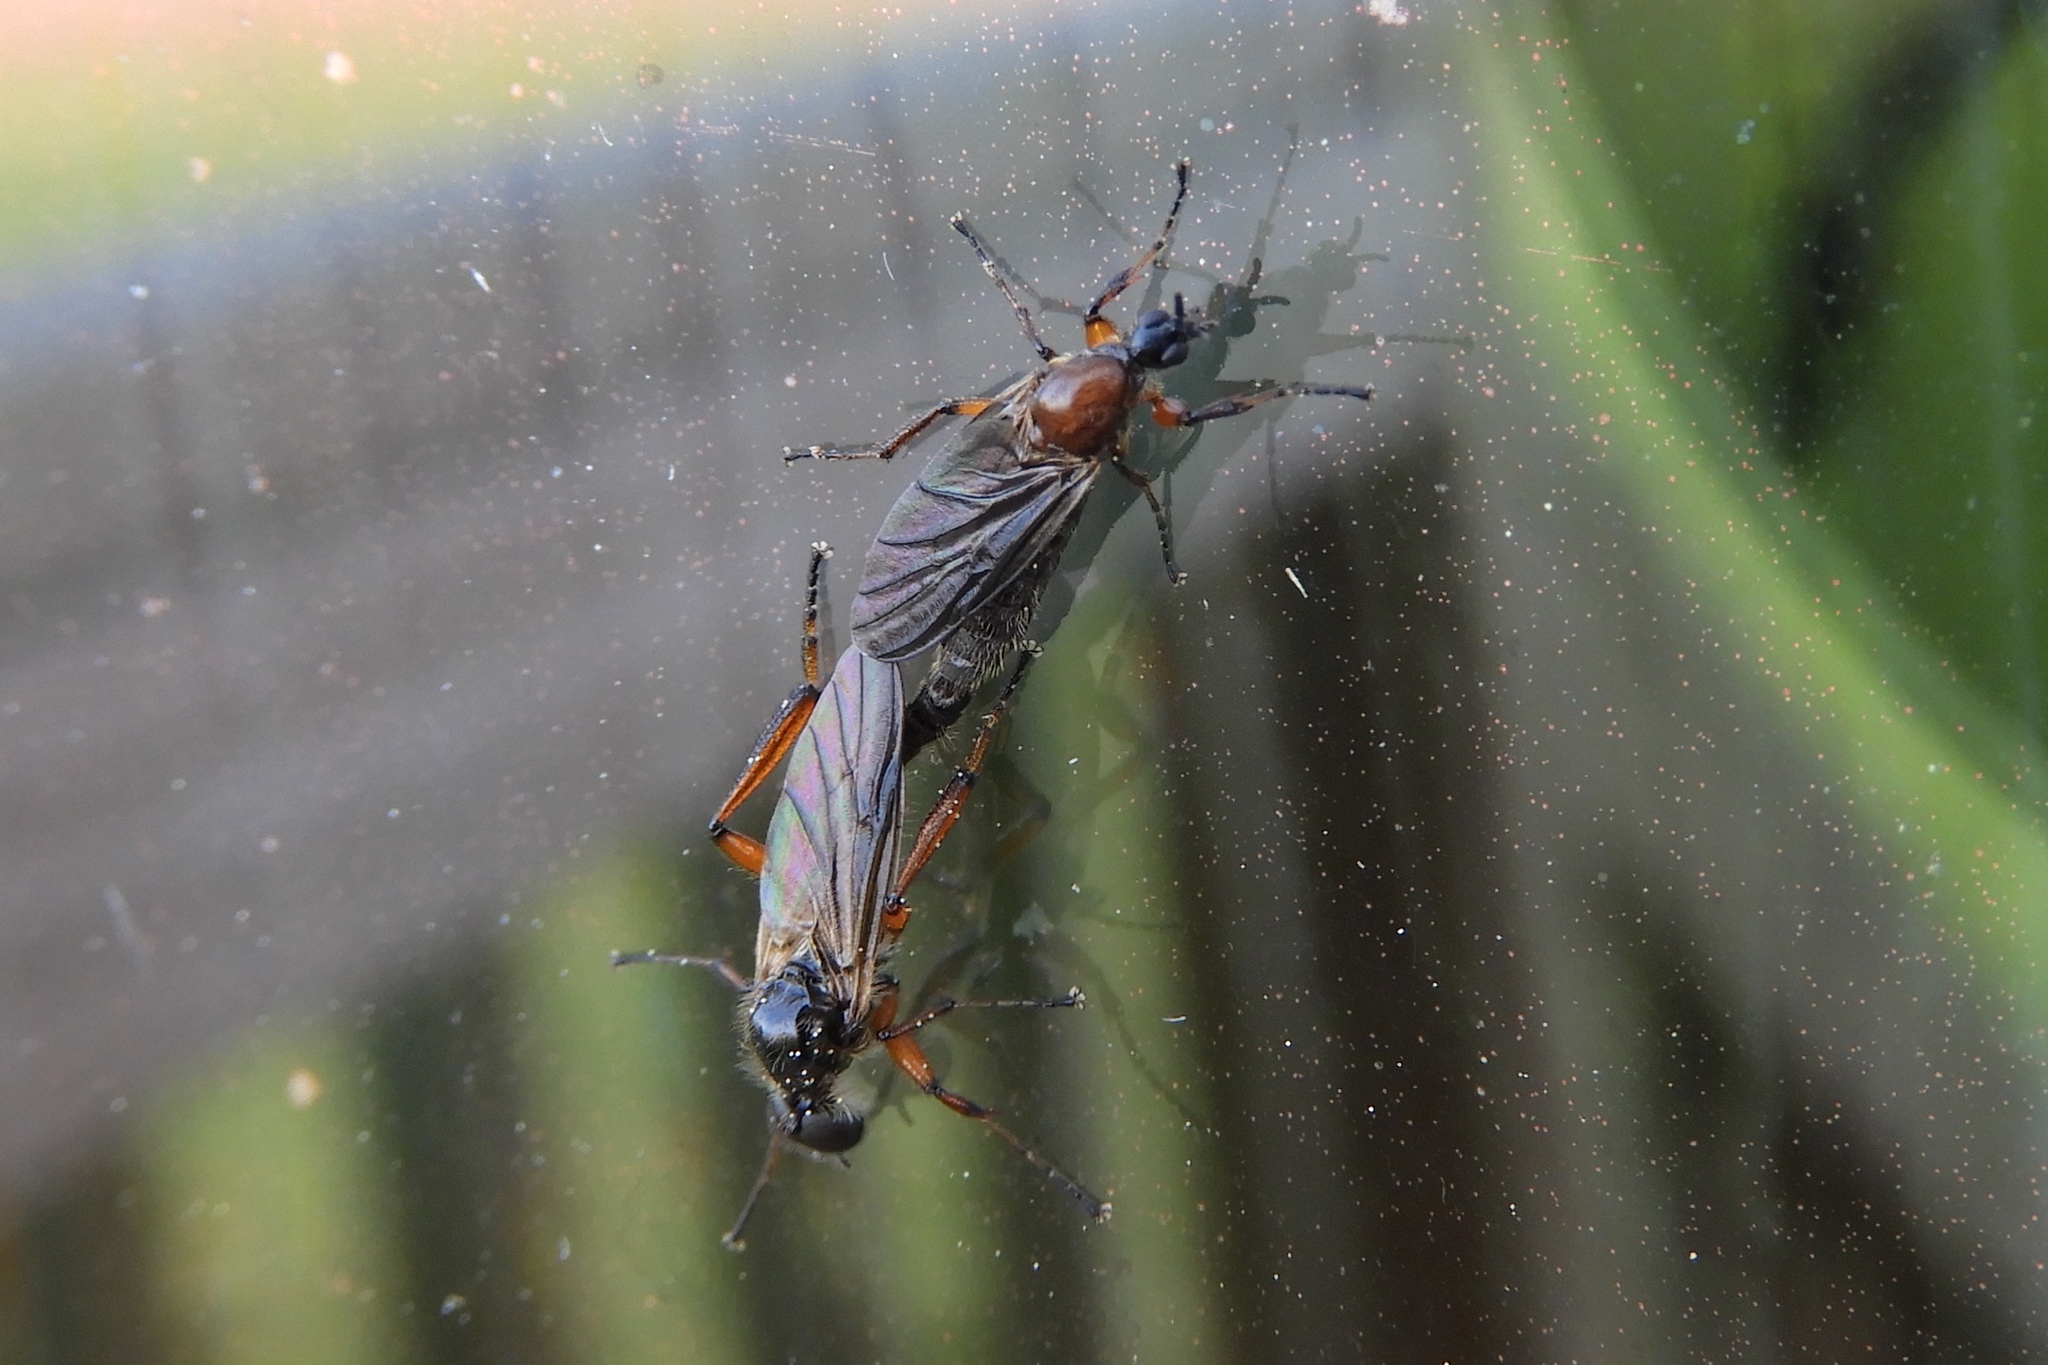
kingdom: Animalia
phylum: Arthropoda
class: Insecta
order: Diptera
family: Bibionidae
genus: Bibio
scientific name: Bibio articulatus
